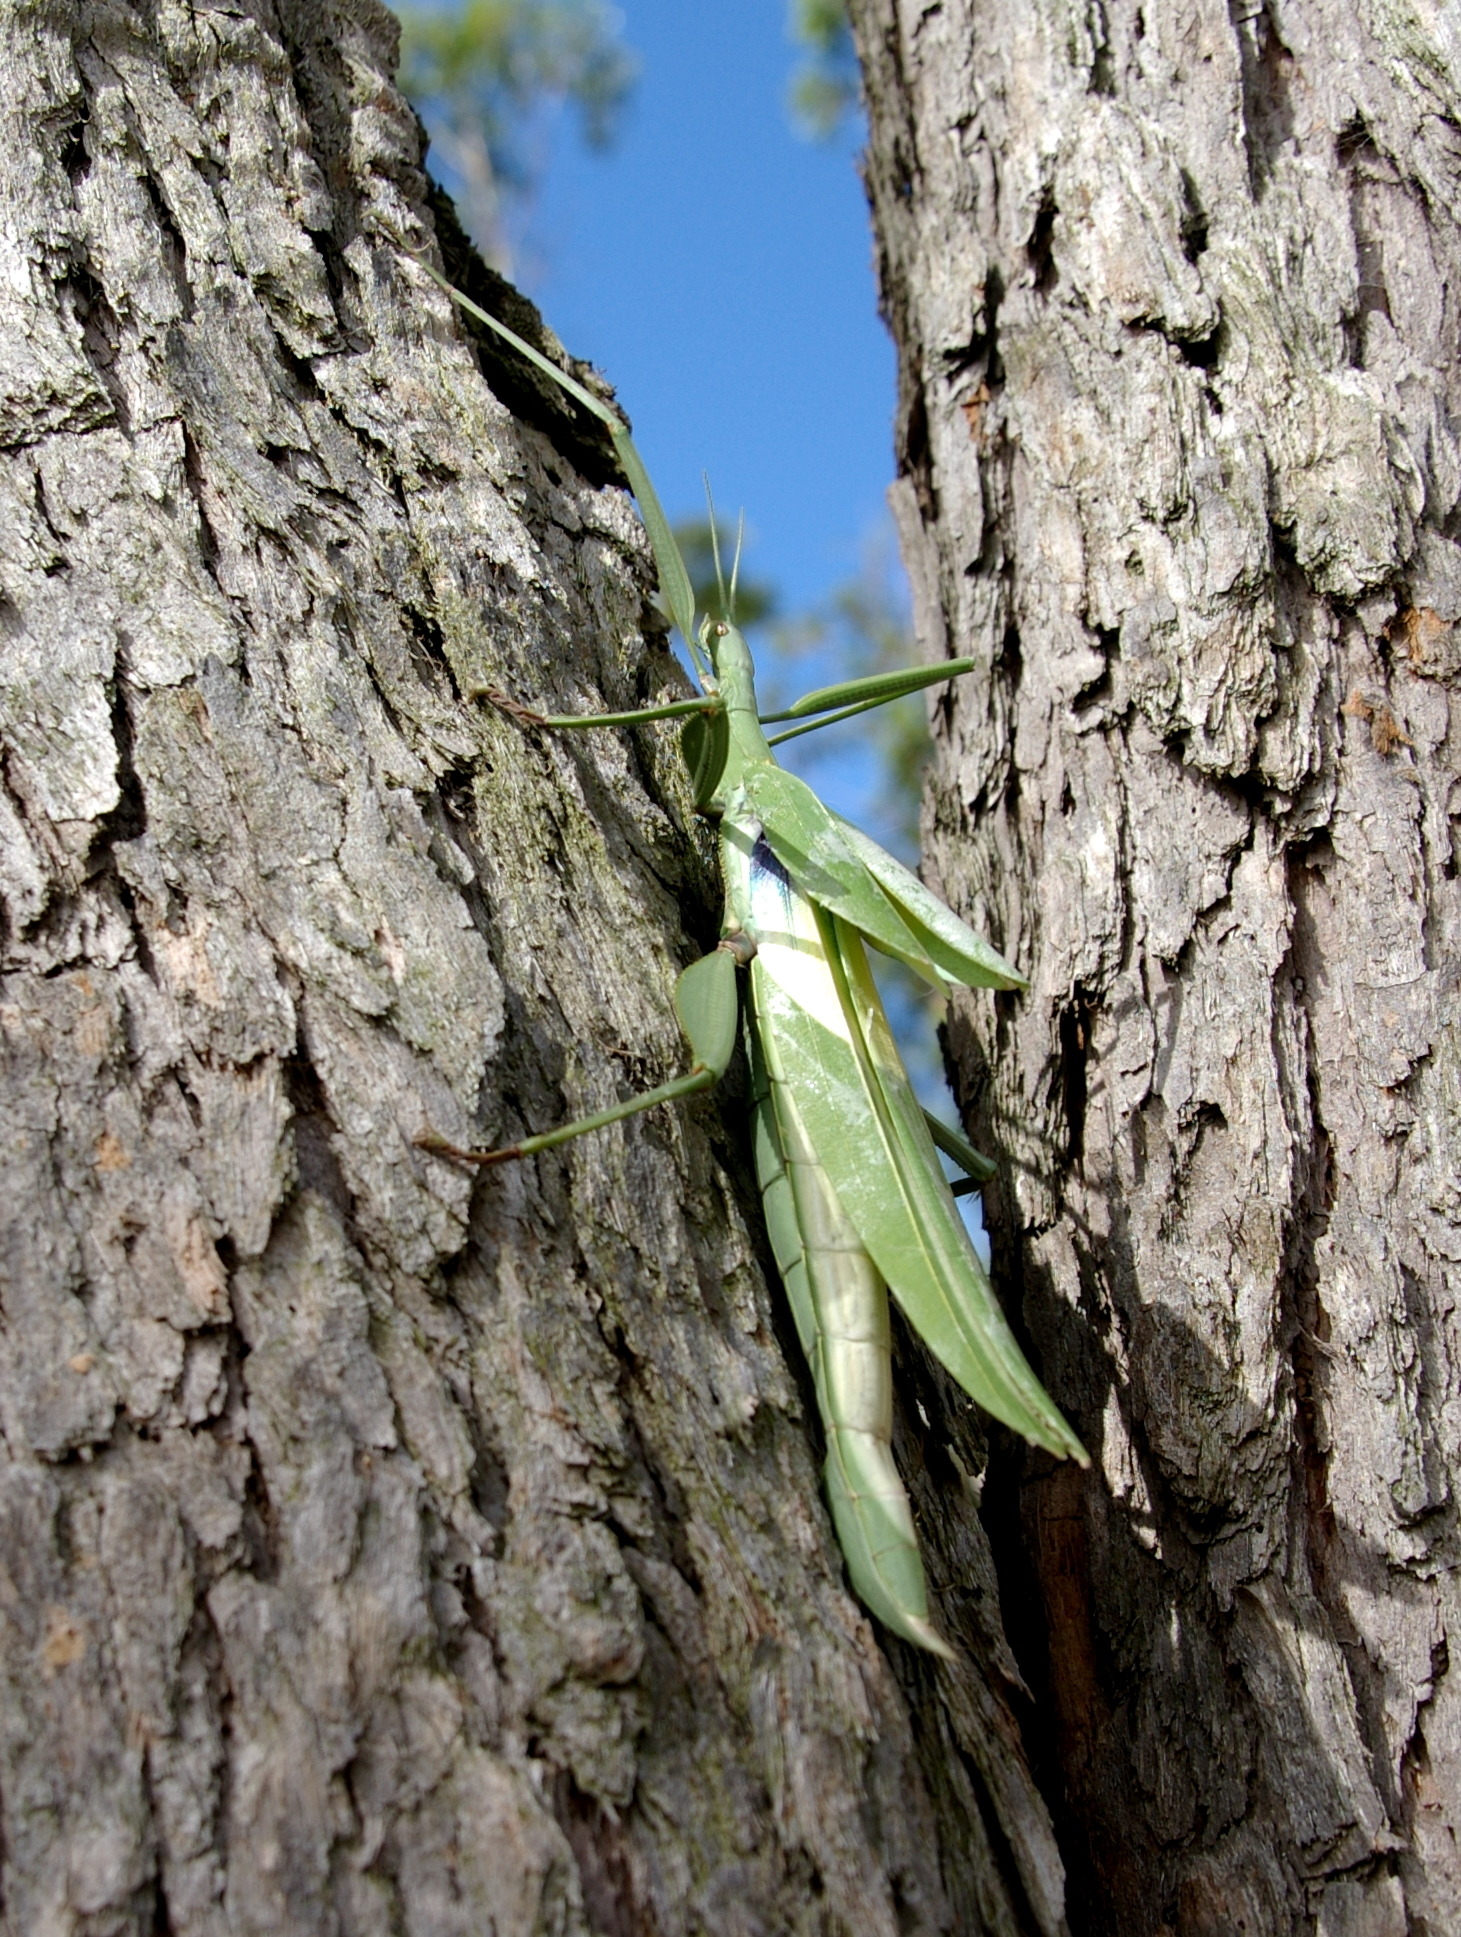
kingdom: Animalia
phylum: Arthropoda
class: Insecta
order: Phasmida
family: Phasmatidae
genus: Tropidoderus
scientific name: Tropidoderus childrenii
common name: Children's stick insect
